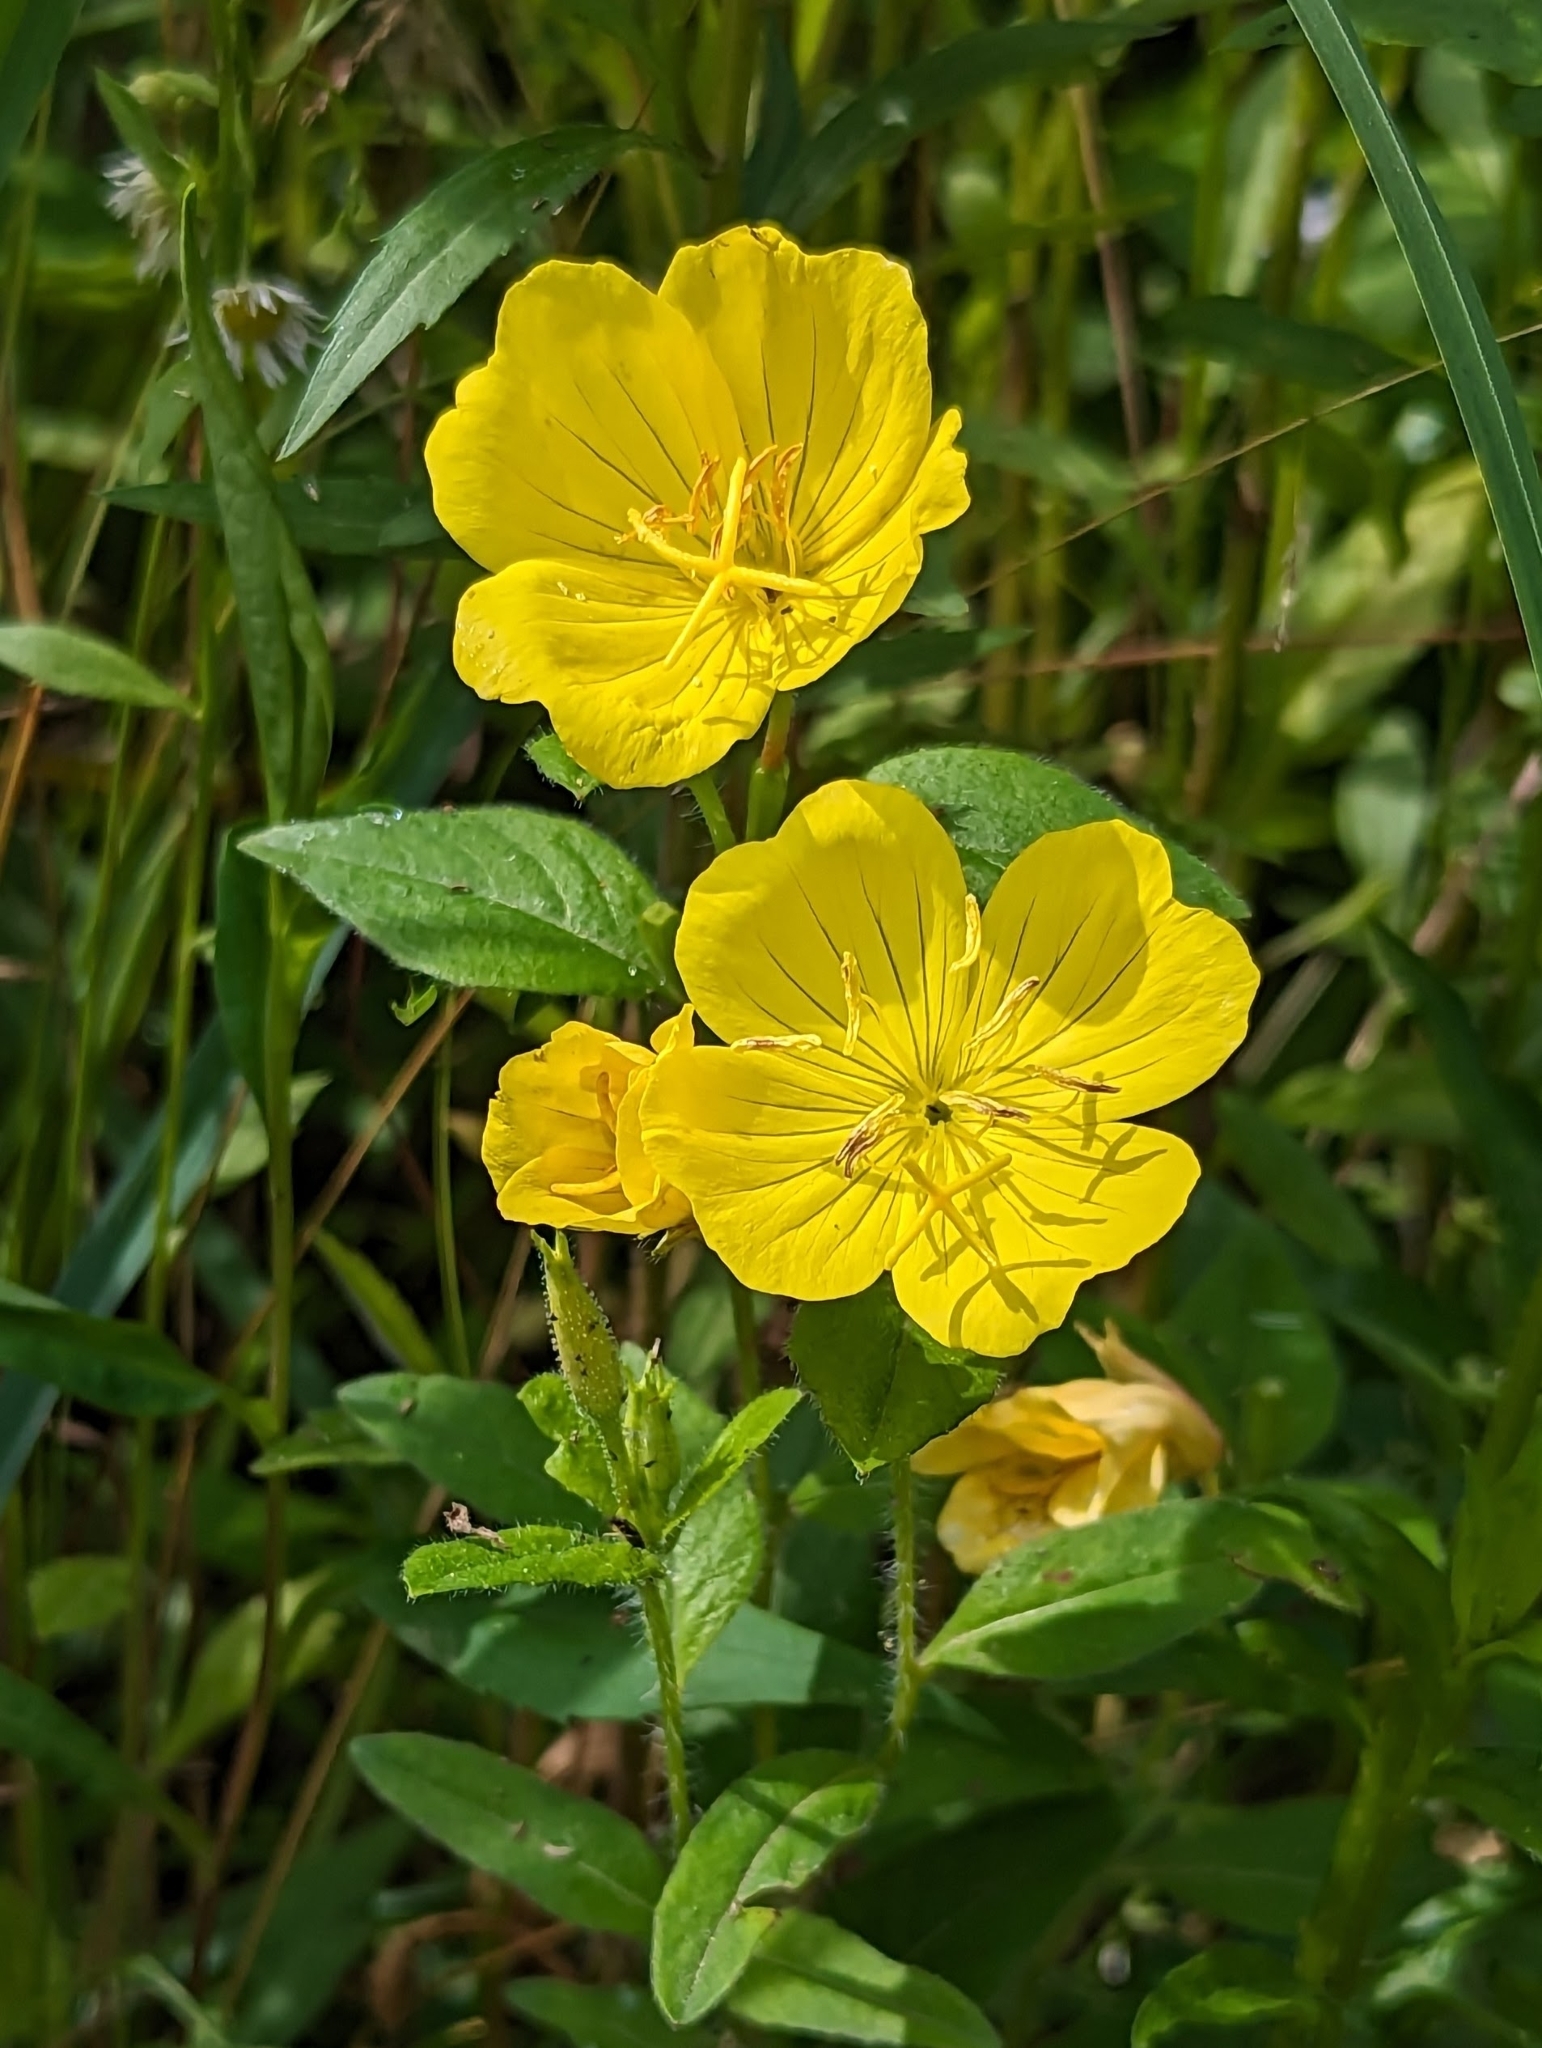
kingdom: Plantae
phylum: Tracheophyta
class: Magnoliopsida
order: Myrtales
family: Onagraceae
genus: Oenothera
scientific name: Oenothera pilosella
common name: Finely-pilose evening-primrose
